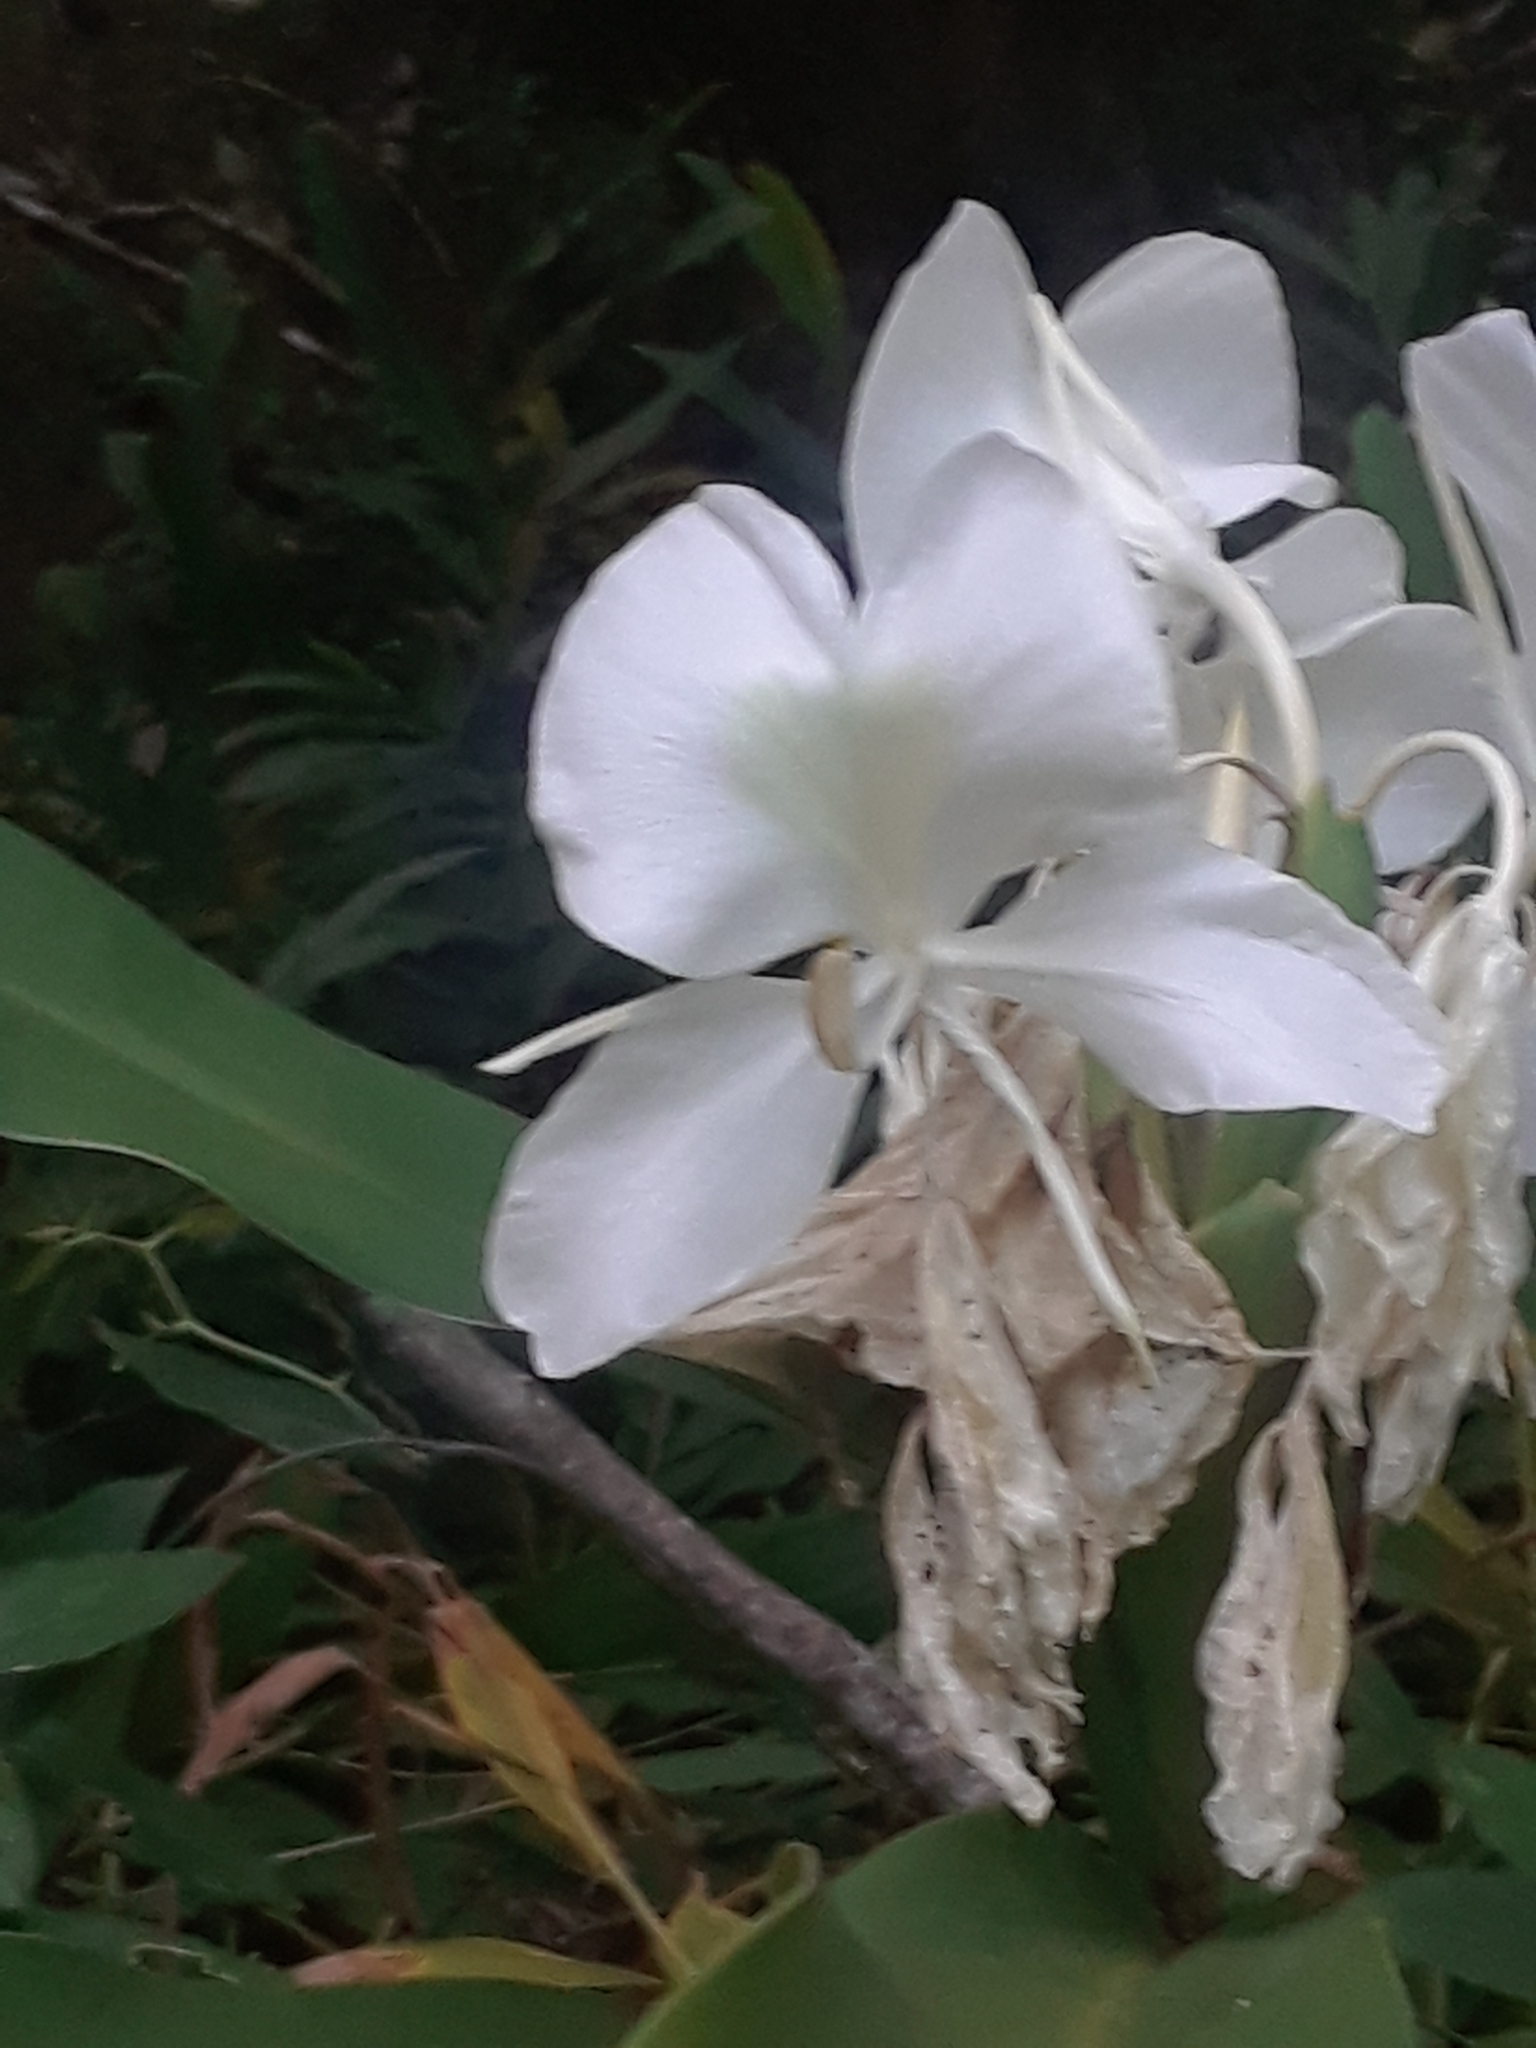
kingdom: Plantae
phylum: Tracheophyta
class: Liliopsida
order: Zingiberales
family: Zingiberaceae
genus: Hedychium
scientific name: Hedychium coronarium
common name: White garland-lily
